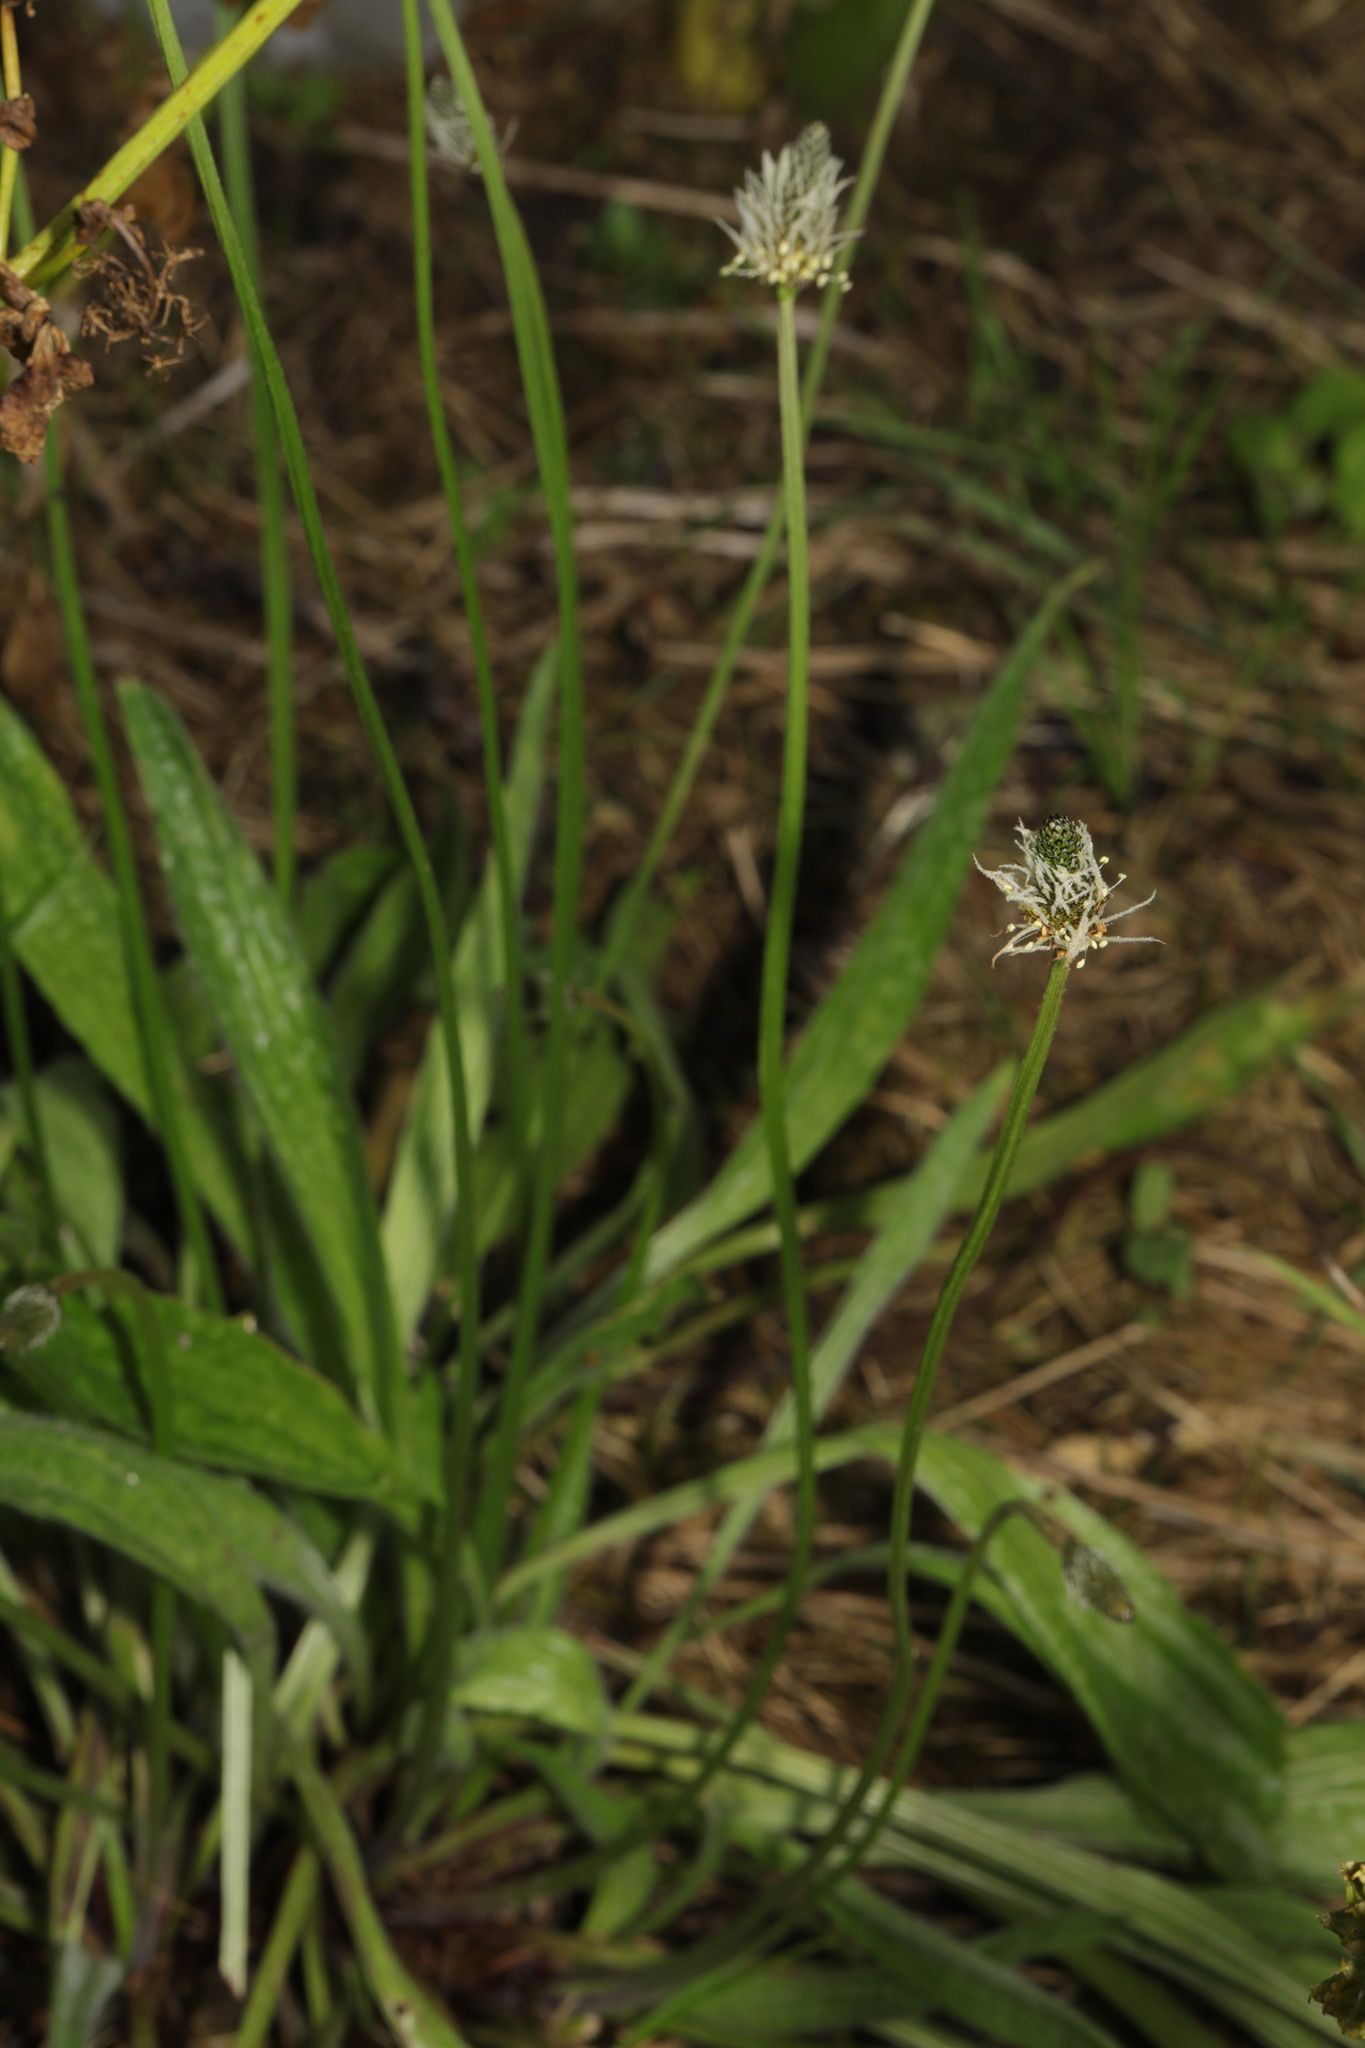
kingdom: Plantae
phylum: Tracheophyta
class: Magnoliopsida
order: Lamiales
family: Plantaginaceae
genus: Plantago
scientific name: Plantago lanceolata
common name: Ribwort plantain
